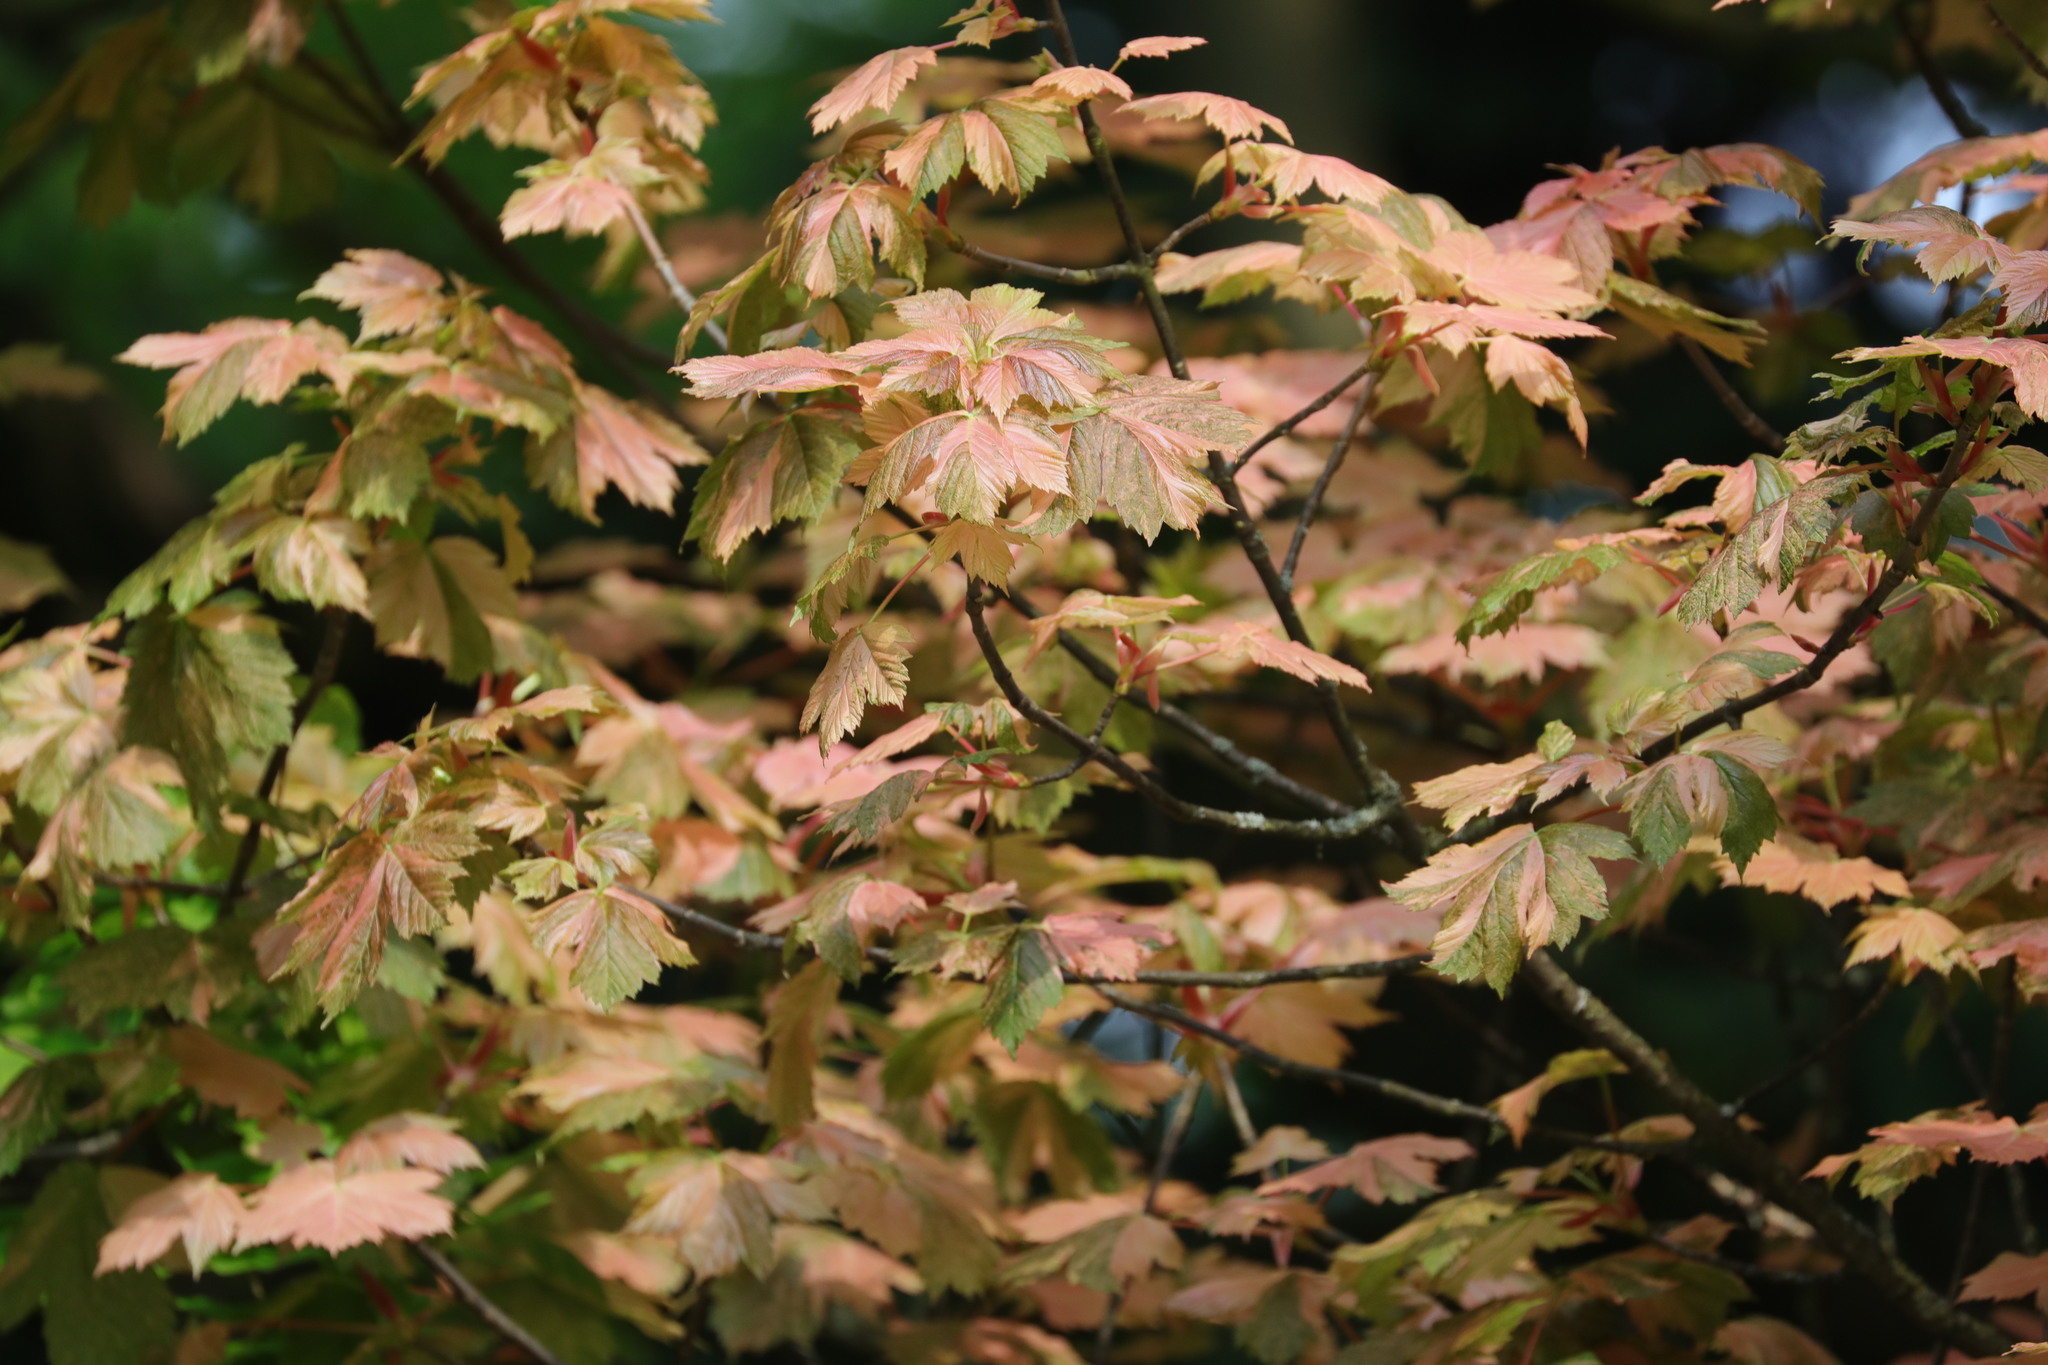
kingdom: Plantae
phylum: Tracheophyta
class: Magnoliopsida
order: Sapindales
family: Sapindaceae
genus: Acer
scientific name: Acer pseudoplatanus
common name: Sycamore
